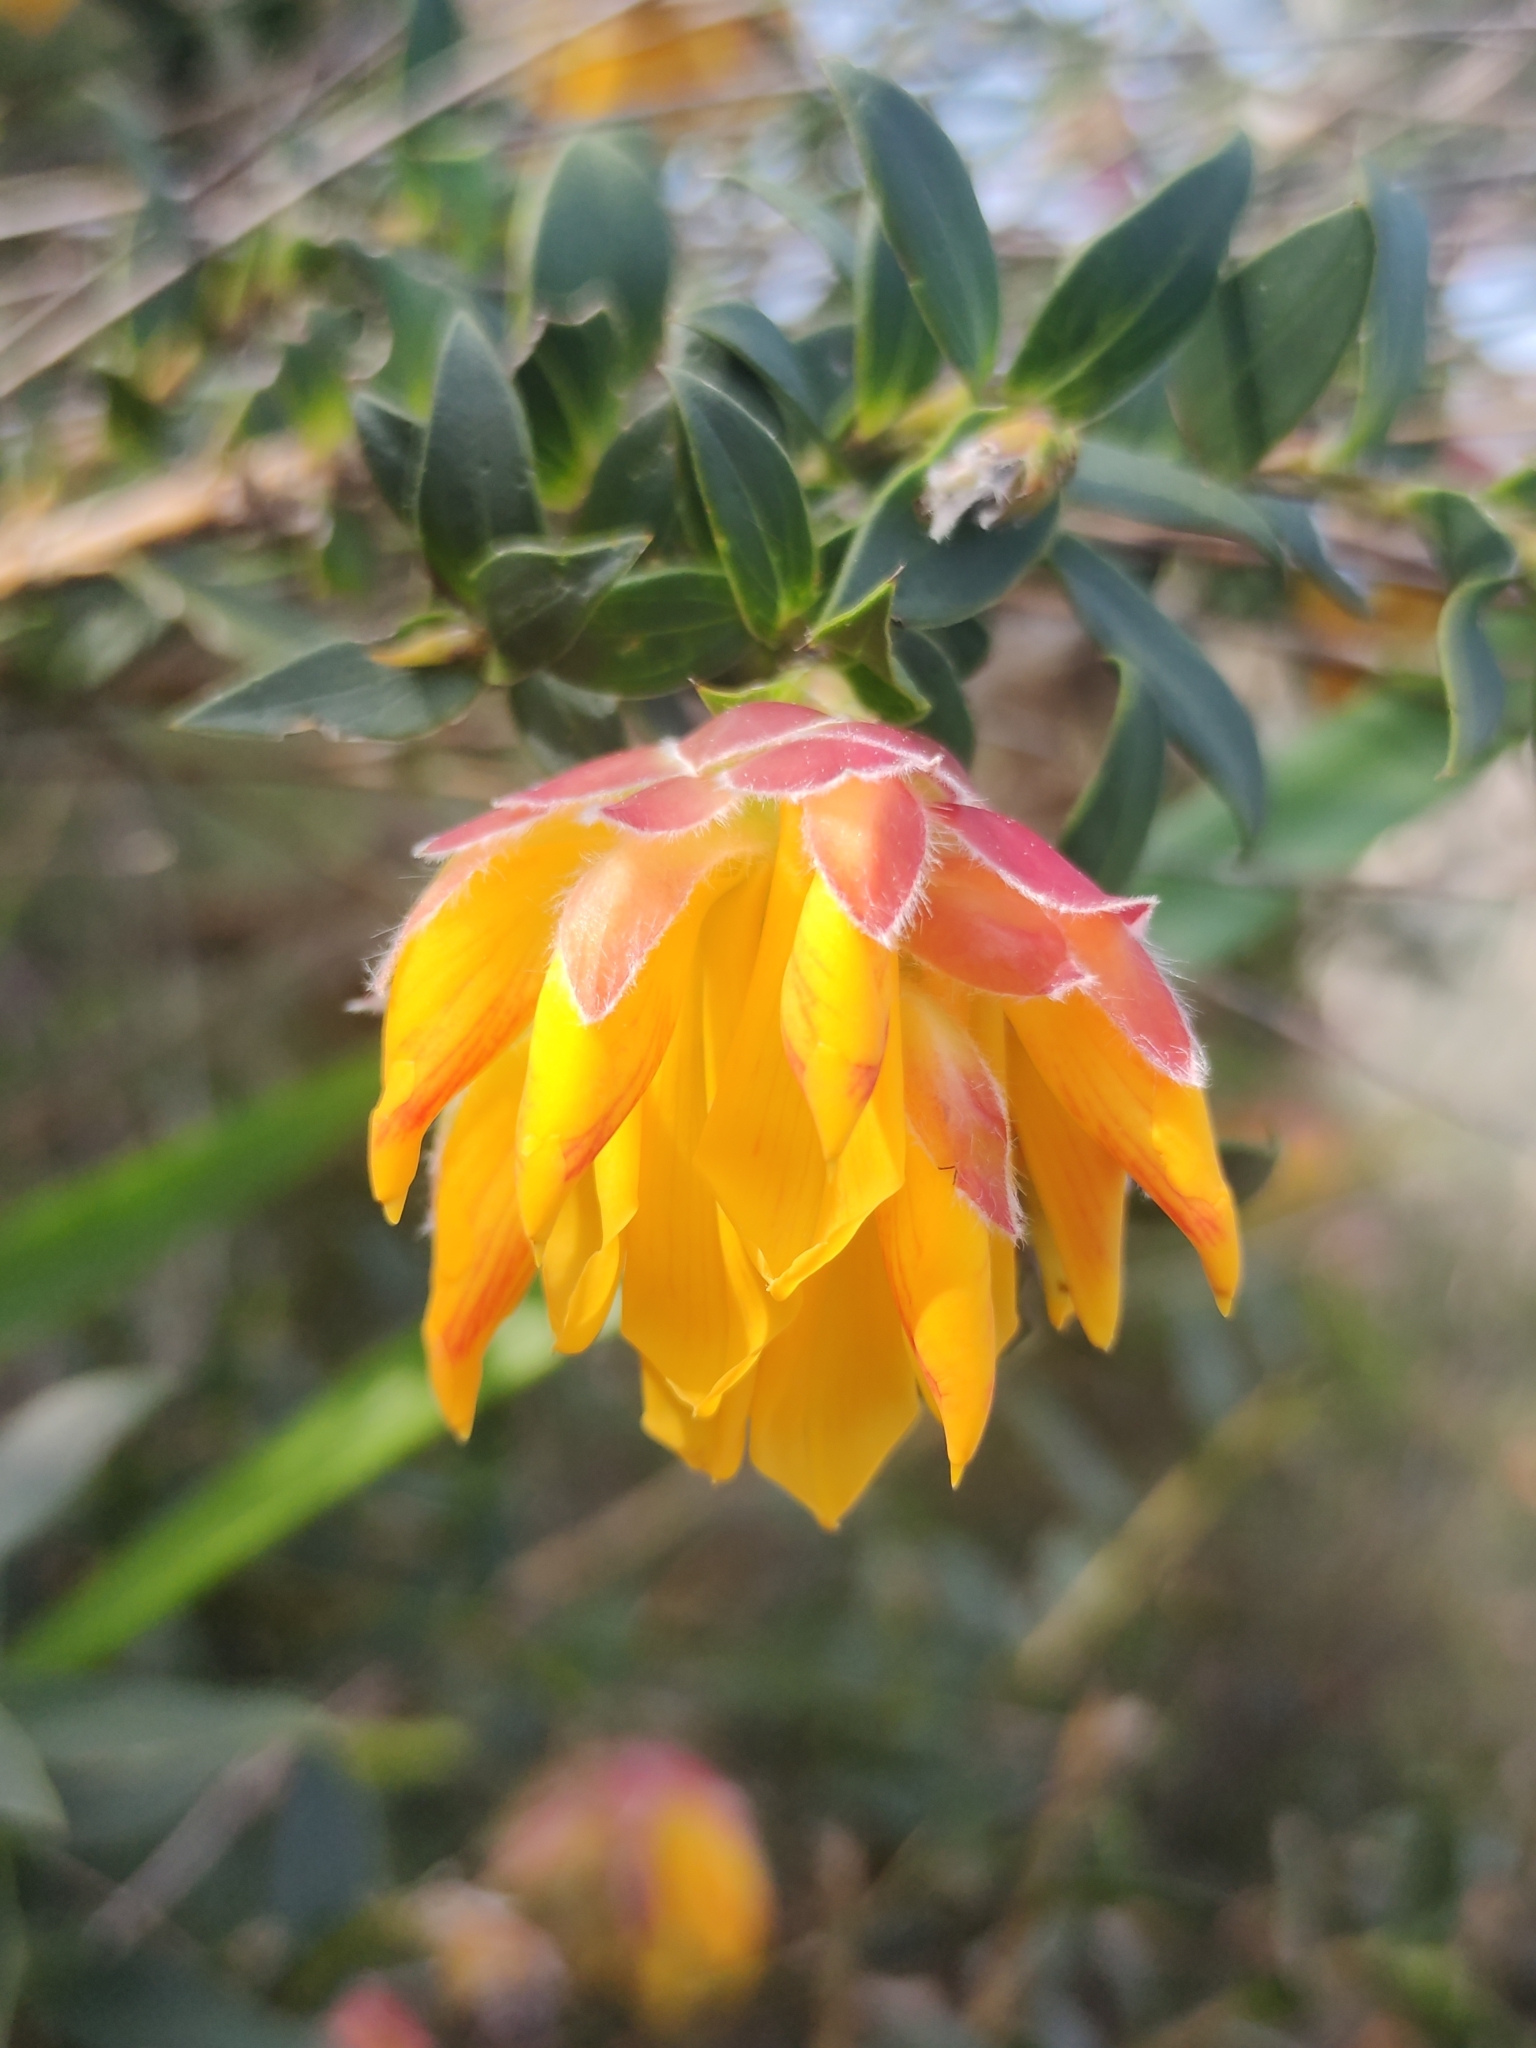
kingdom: Plantae
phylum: Tracheophyta
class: Magnoliopsida
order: Fabales
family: Fabaceae
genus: Liparia
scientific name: Liparia splendens
